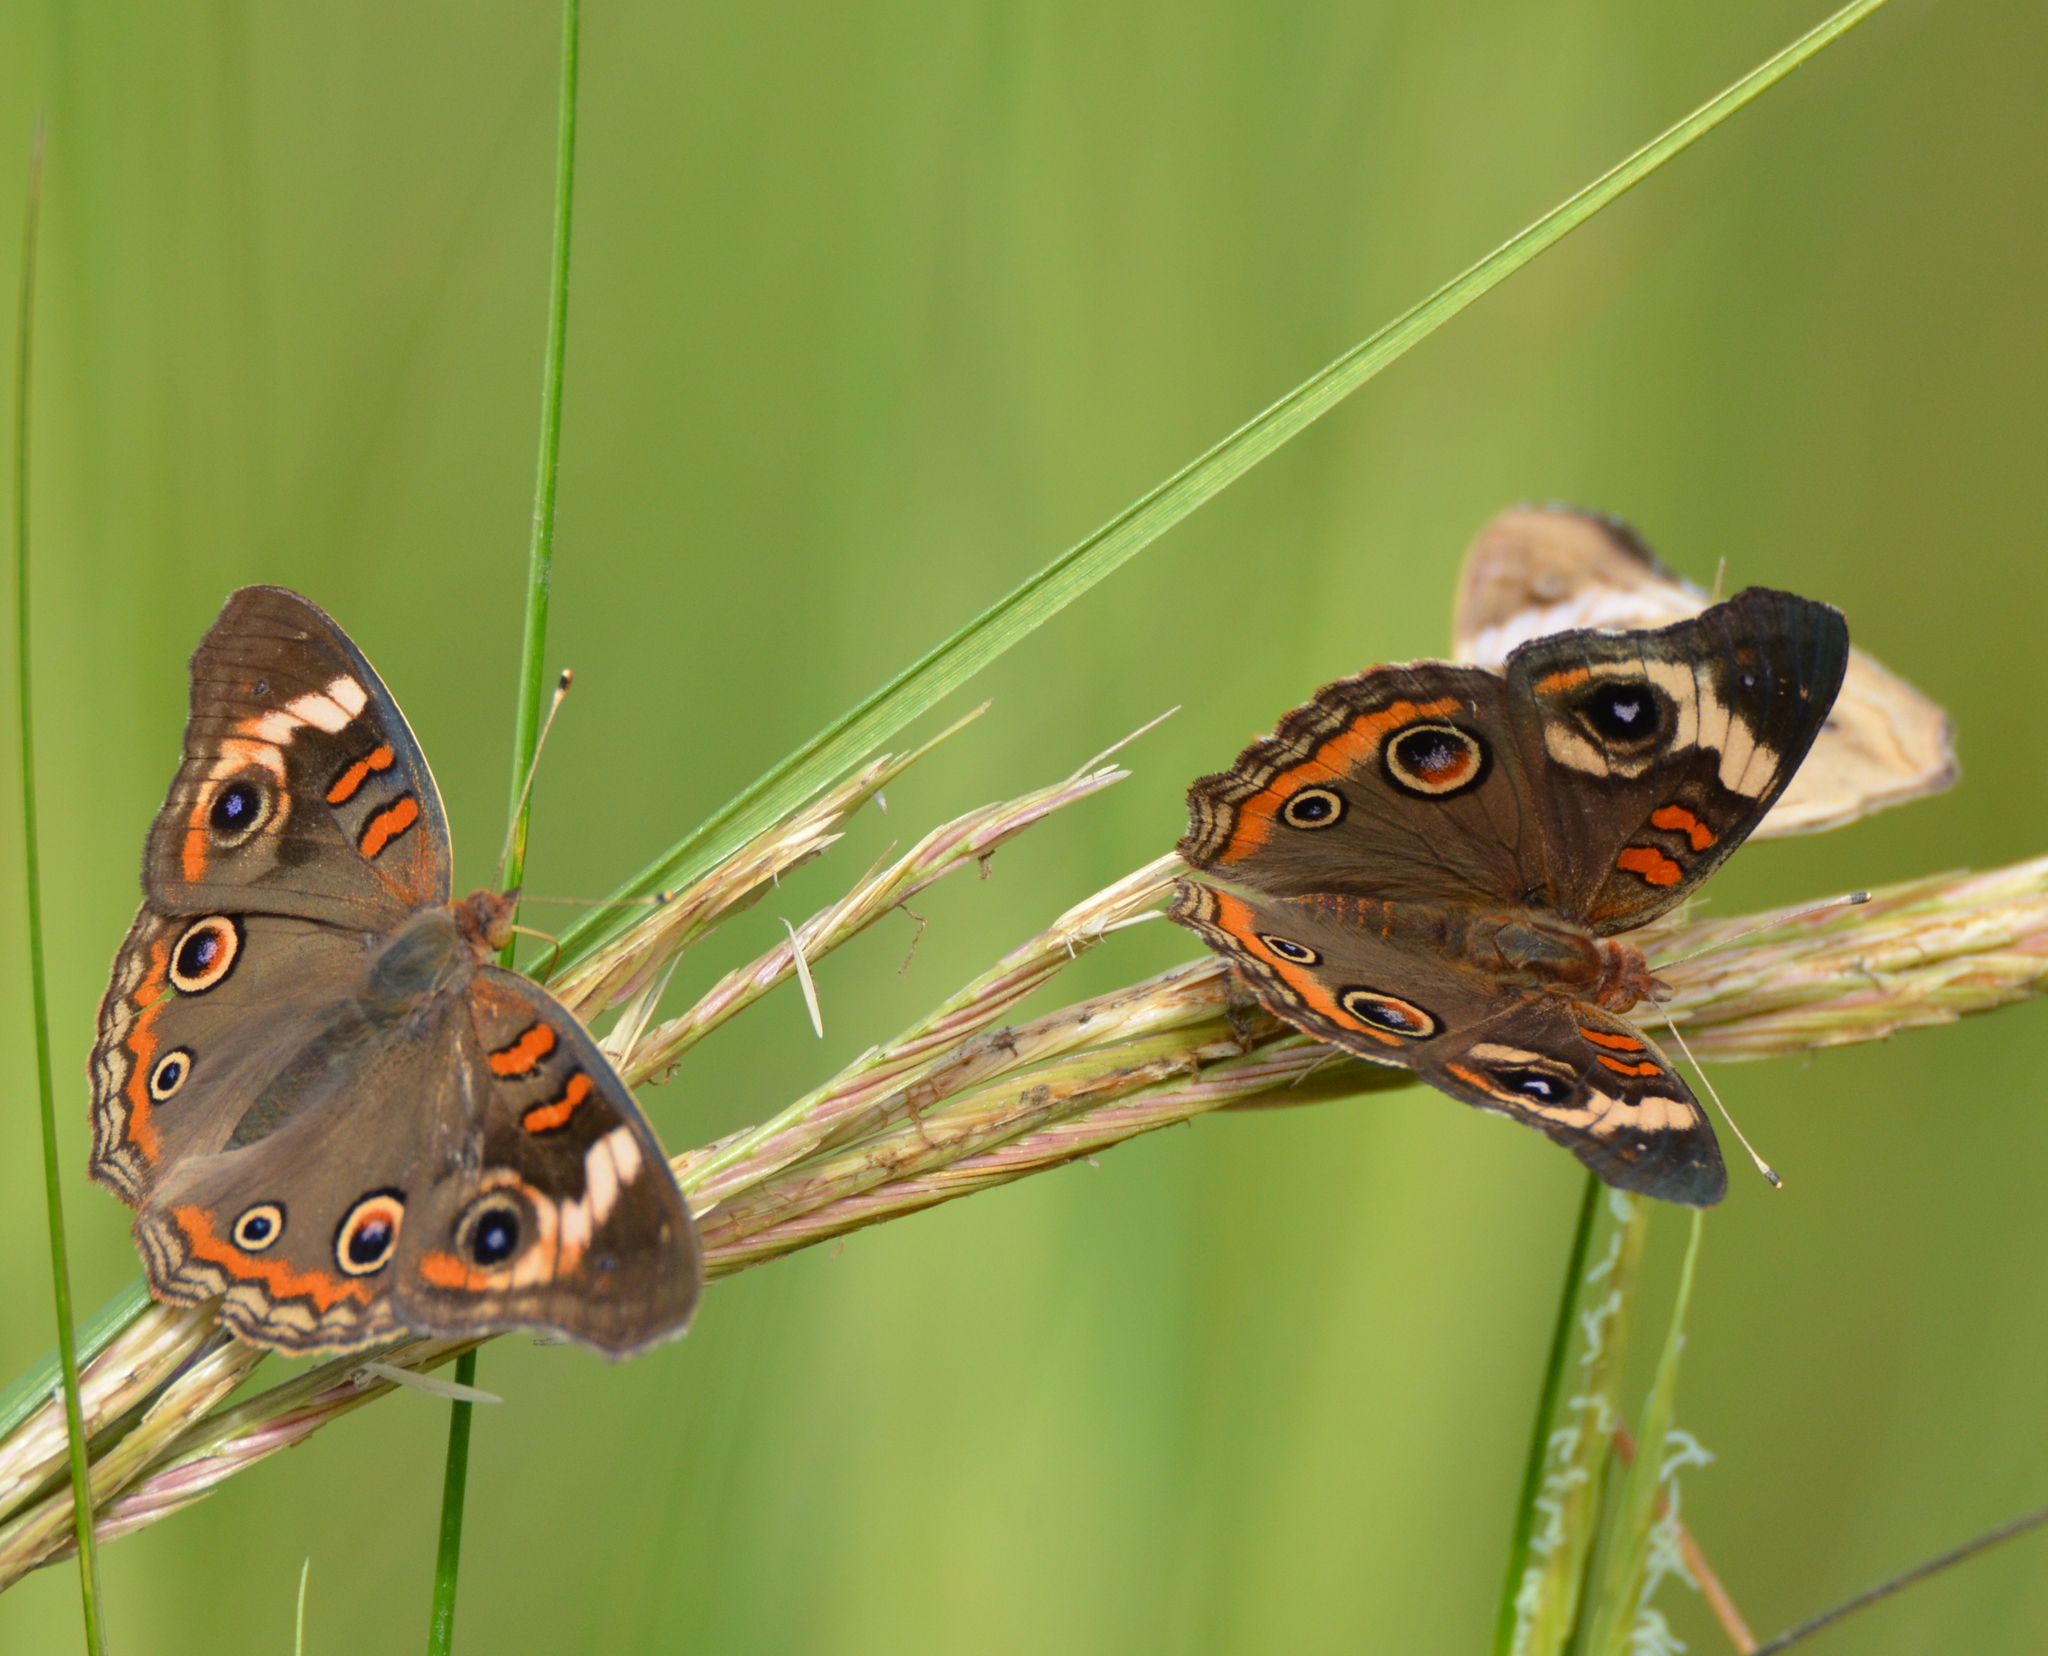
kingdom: Animalia
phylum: Arthropoda
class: Insecta
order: Lepidoptera
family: Nymphalidae
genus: Junonia
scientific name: Junonia coenia
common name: Common buckeye
